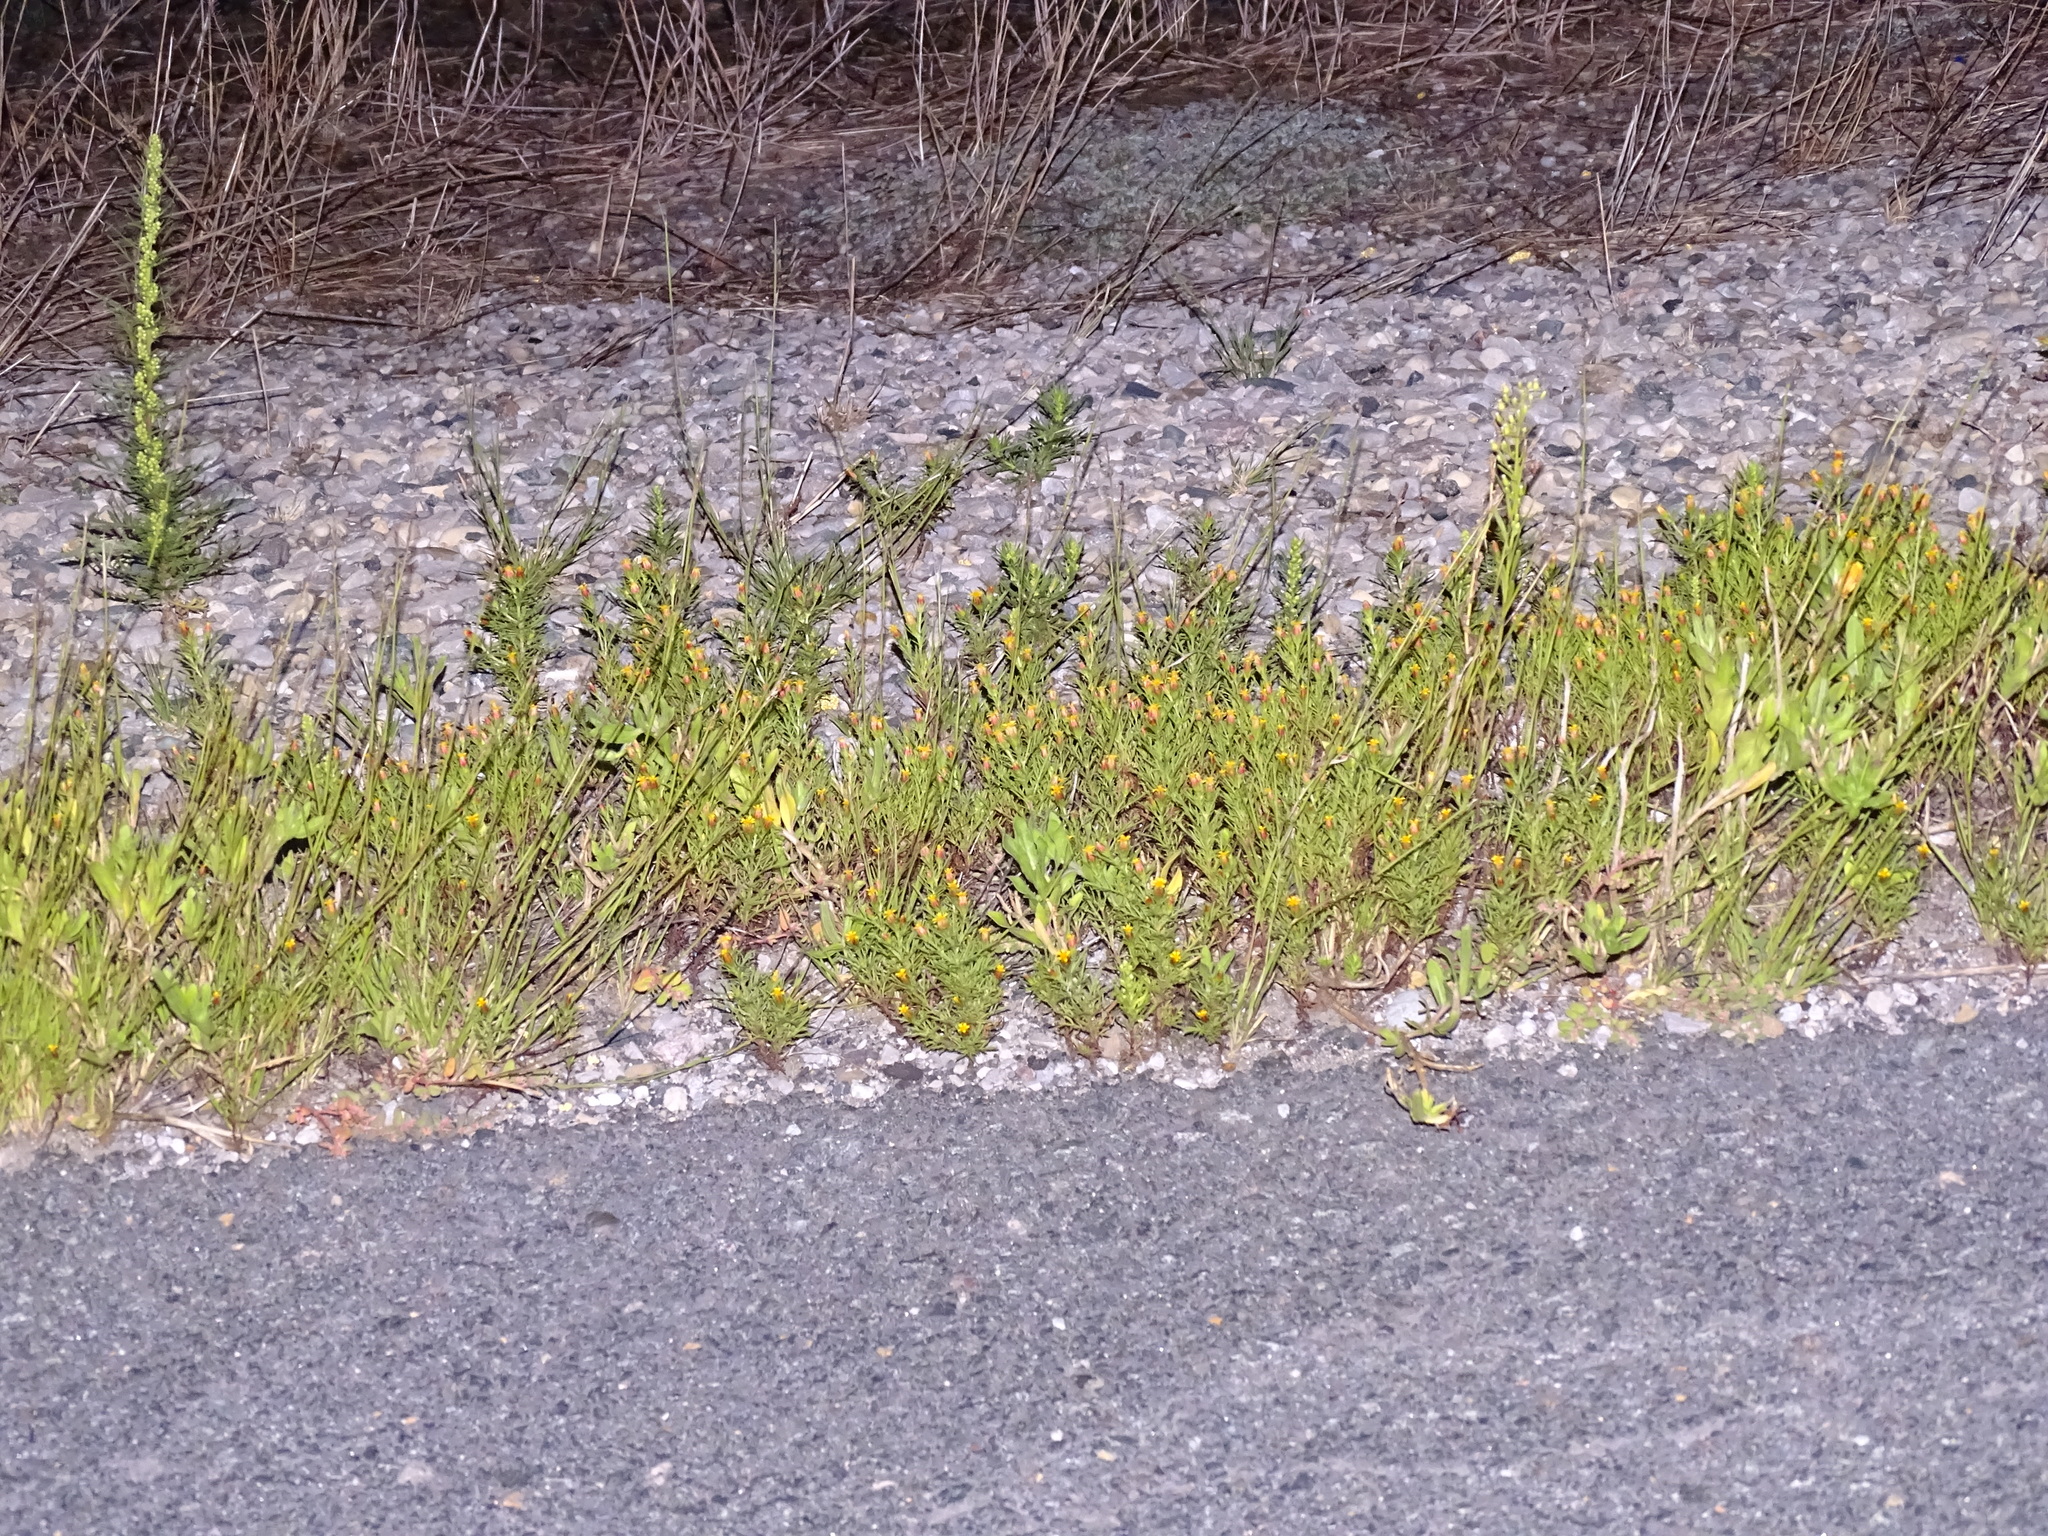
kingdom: Plantae
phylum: Tracheophyta
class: Magnoliopsida
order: Asterales
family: Asteraceae
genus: Dyssodia
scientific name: Dyssodia papposa
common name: Dogweed
